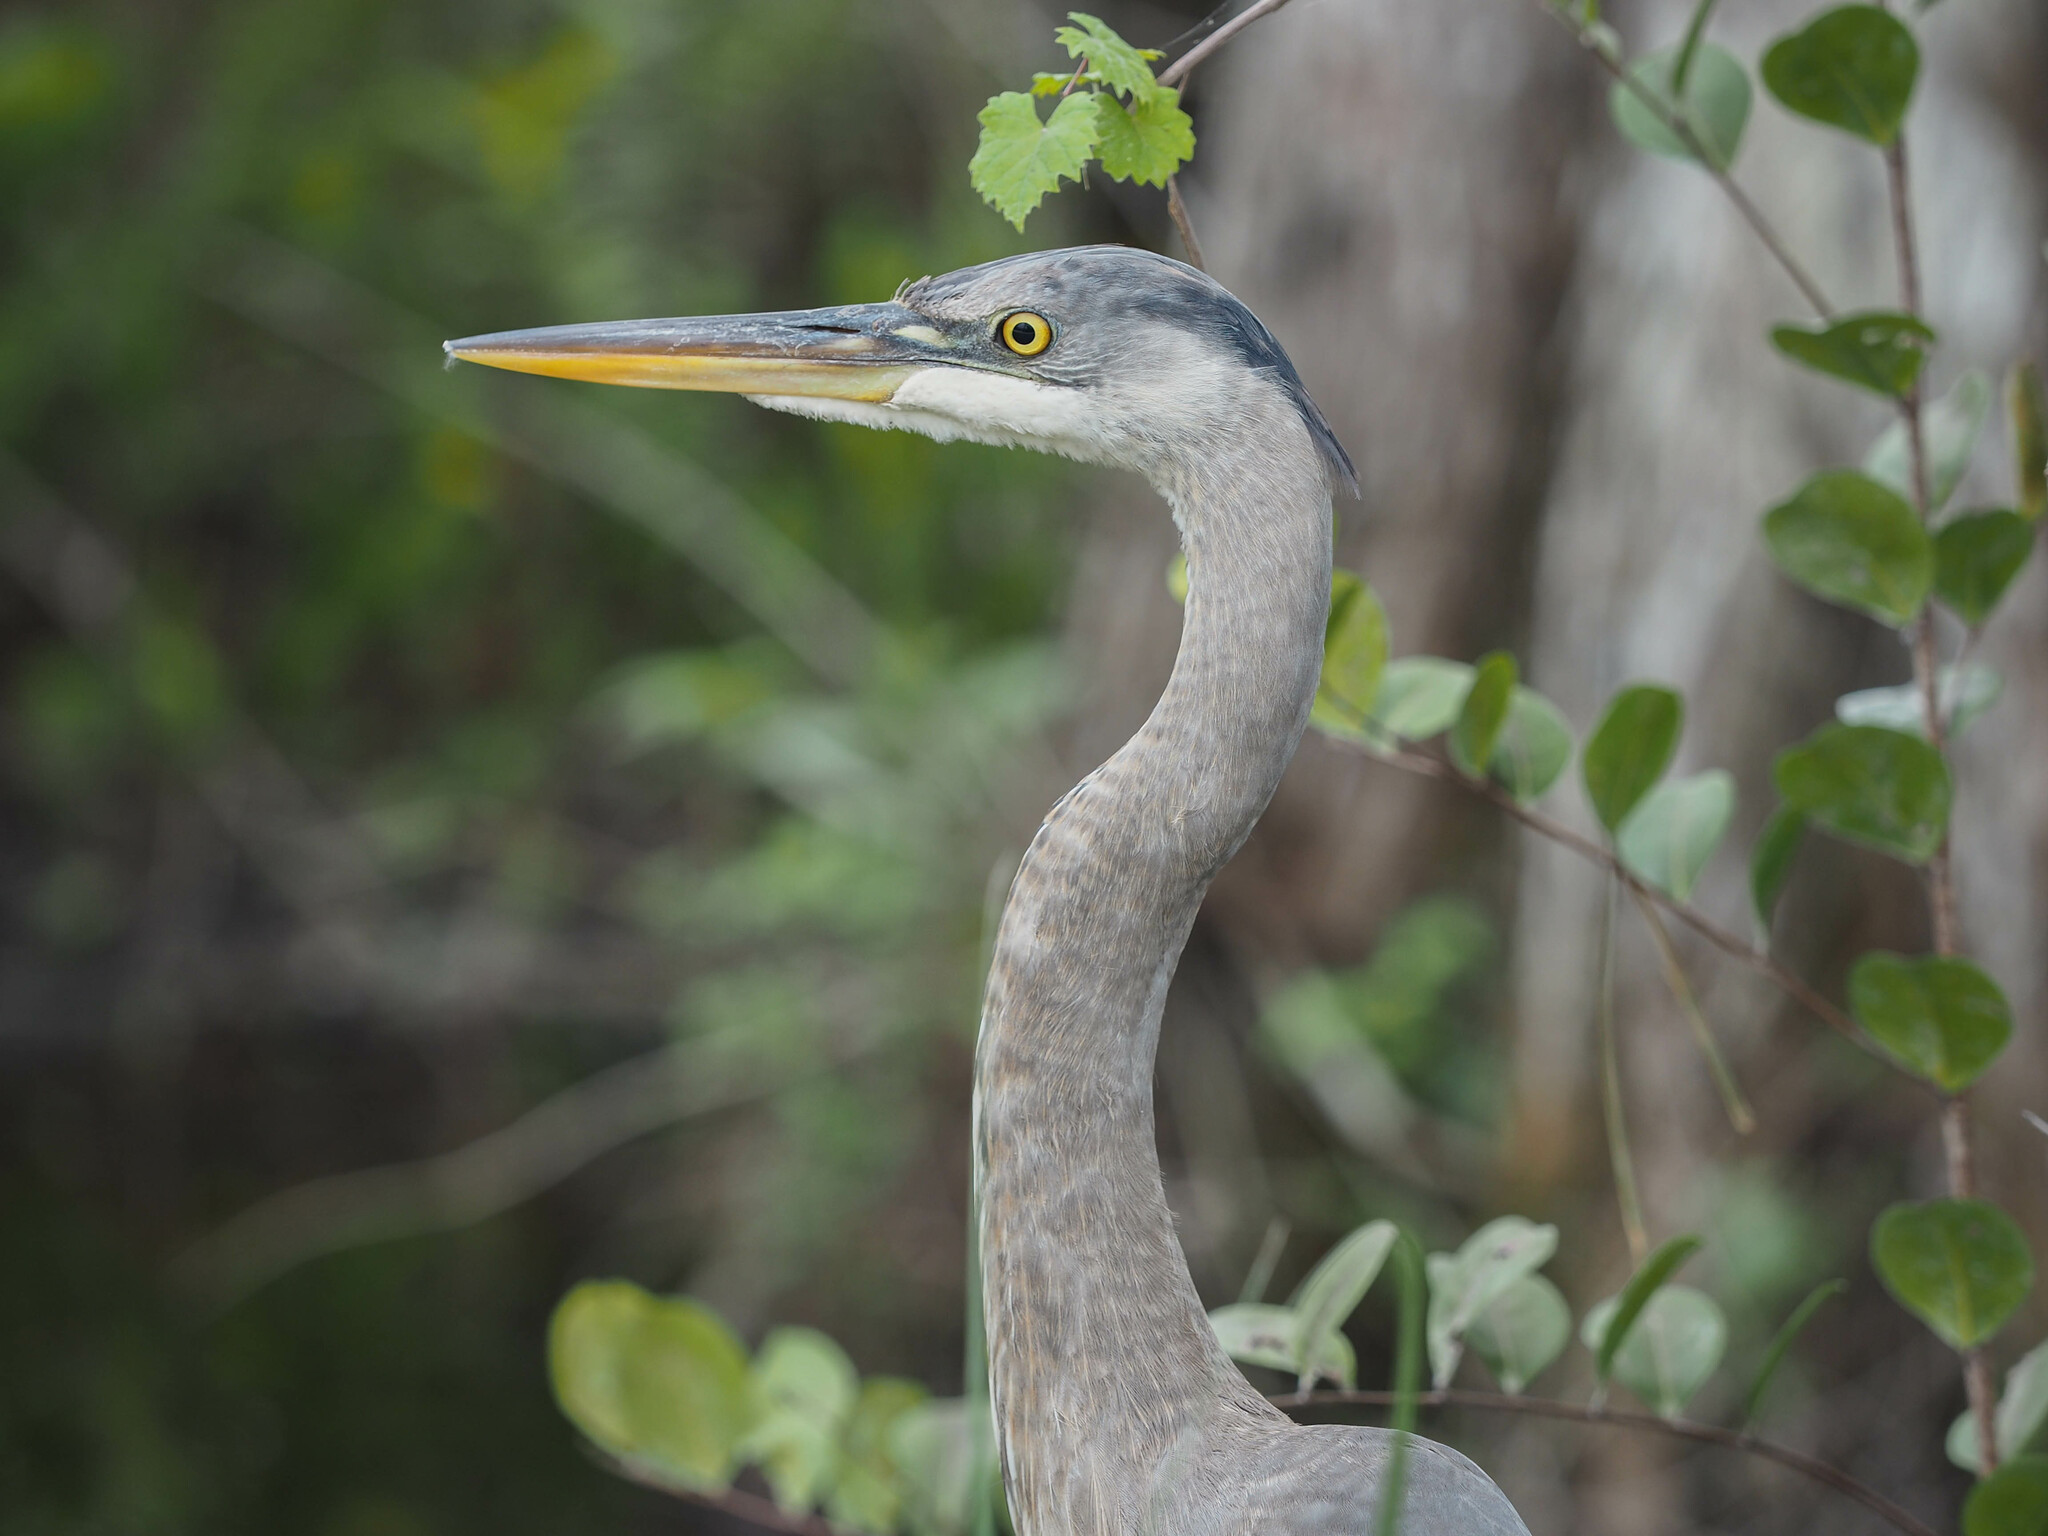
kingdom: Animalia
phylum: Chordata
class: Aves
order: Pelecaniformes
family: Ardeidae
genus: Ardea
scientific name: Ardea herodias
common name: Great blue heron
